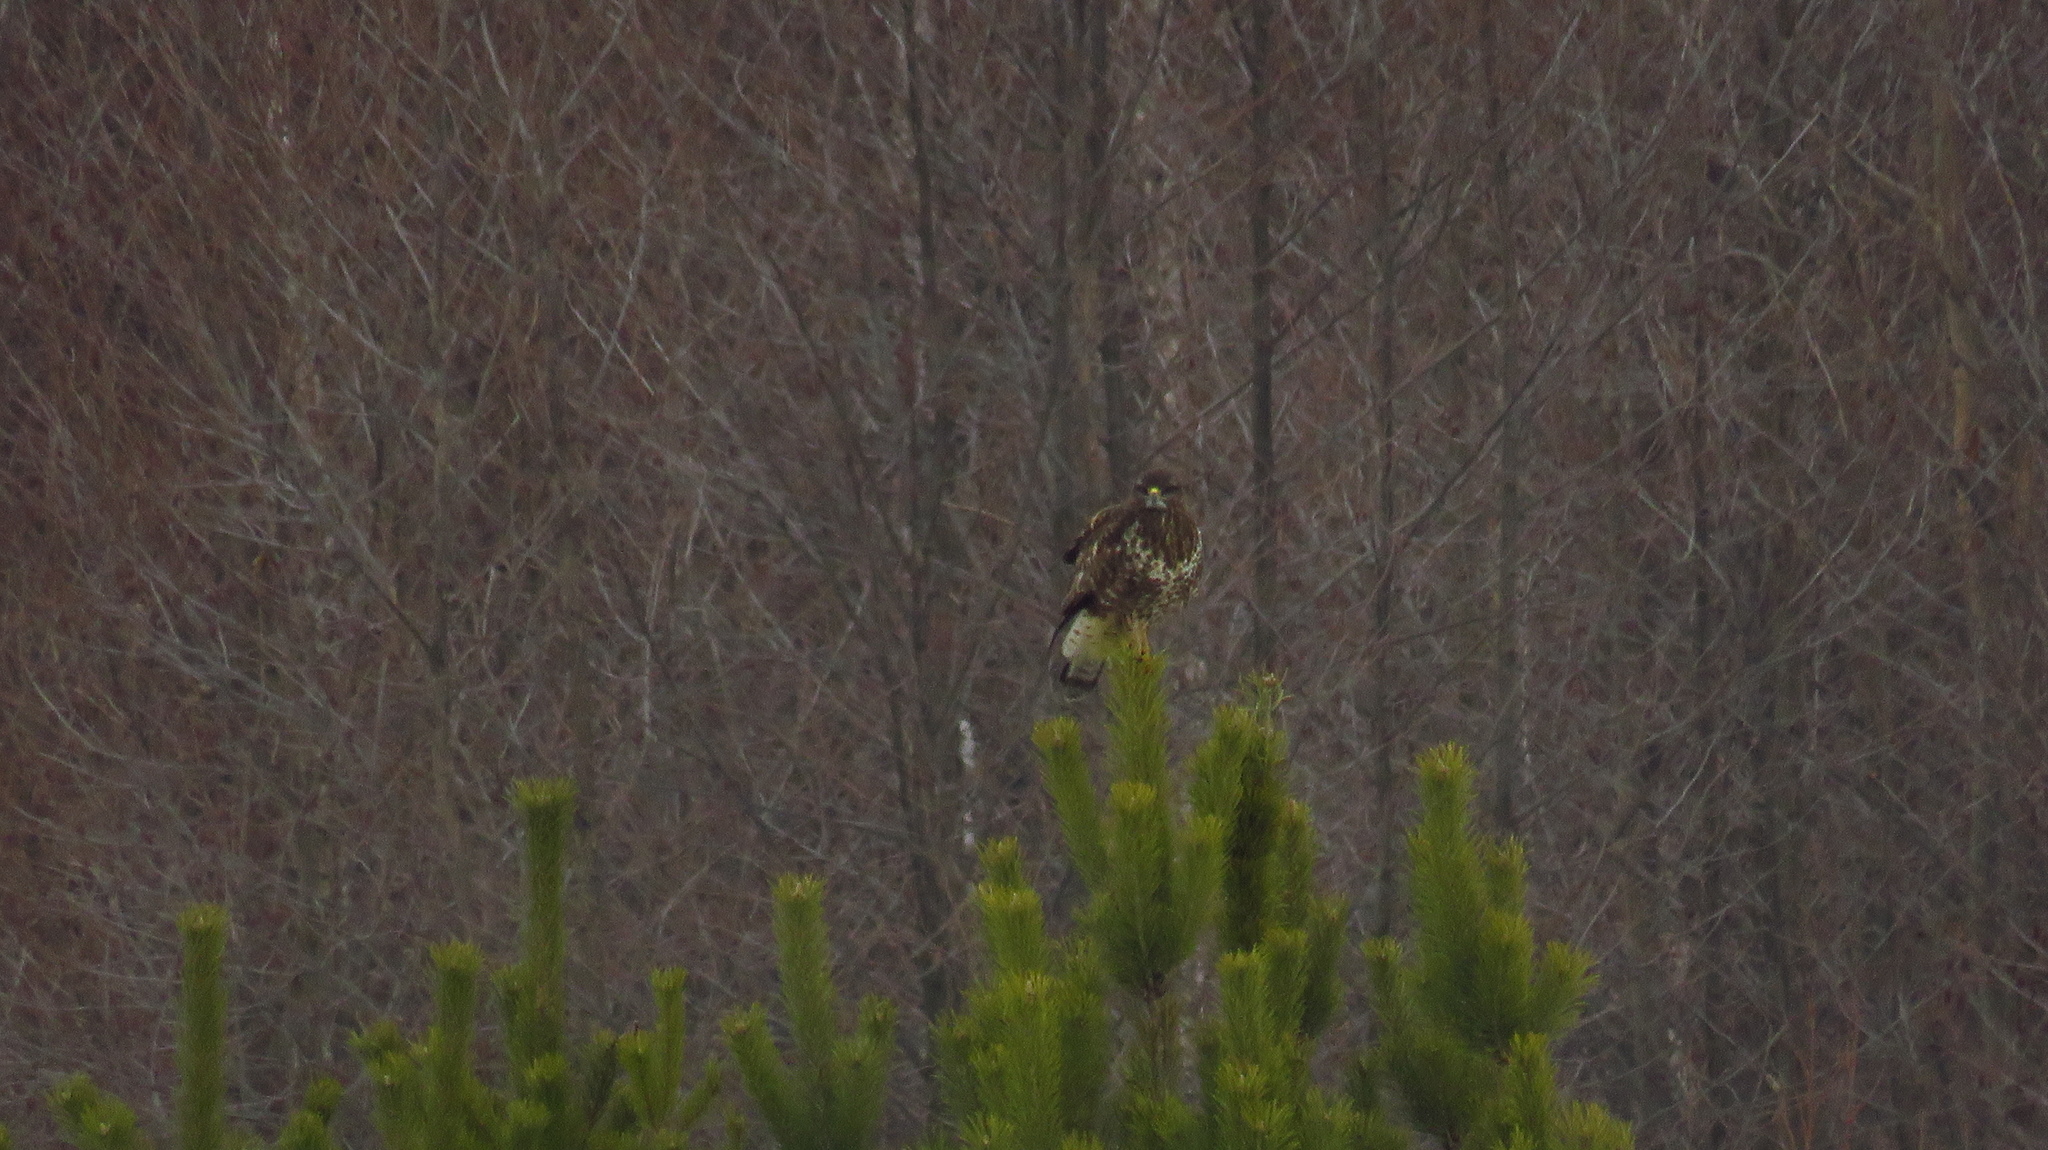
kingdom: Animalia
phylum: Chordata
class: Aves
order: Accipitriformes
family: Accipitridae
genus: Buteo
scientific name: Buteo buteo
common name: Common buzzard
